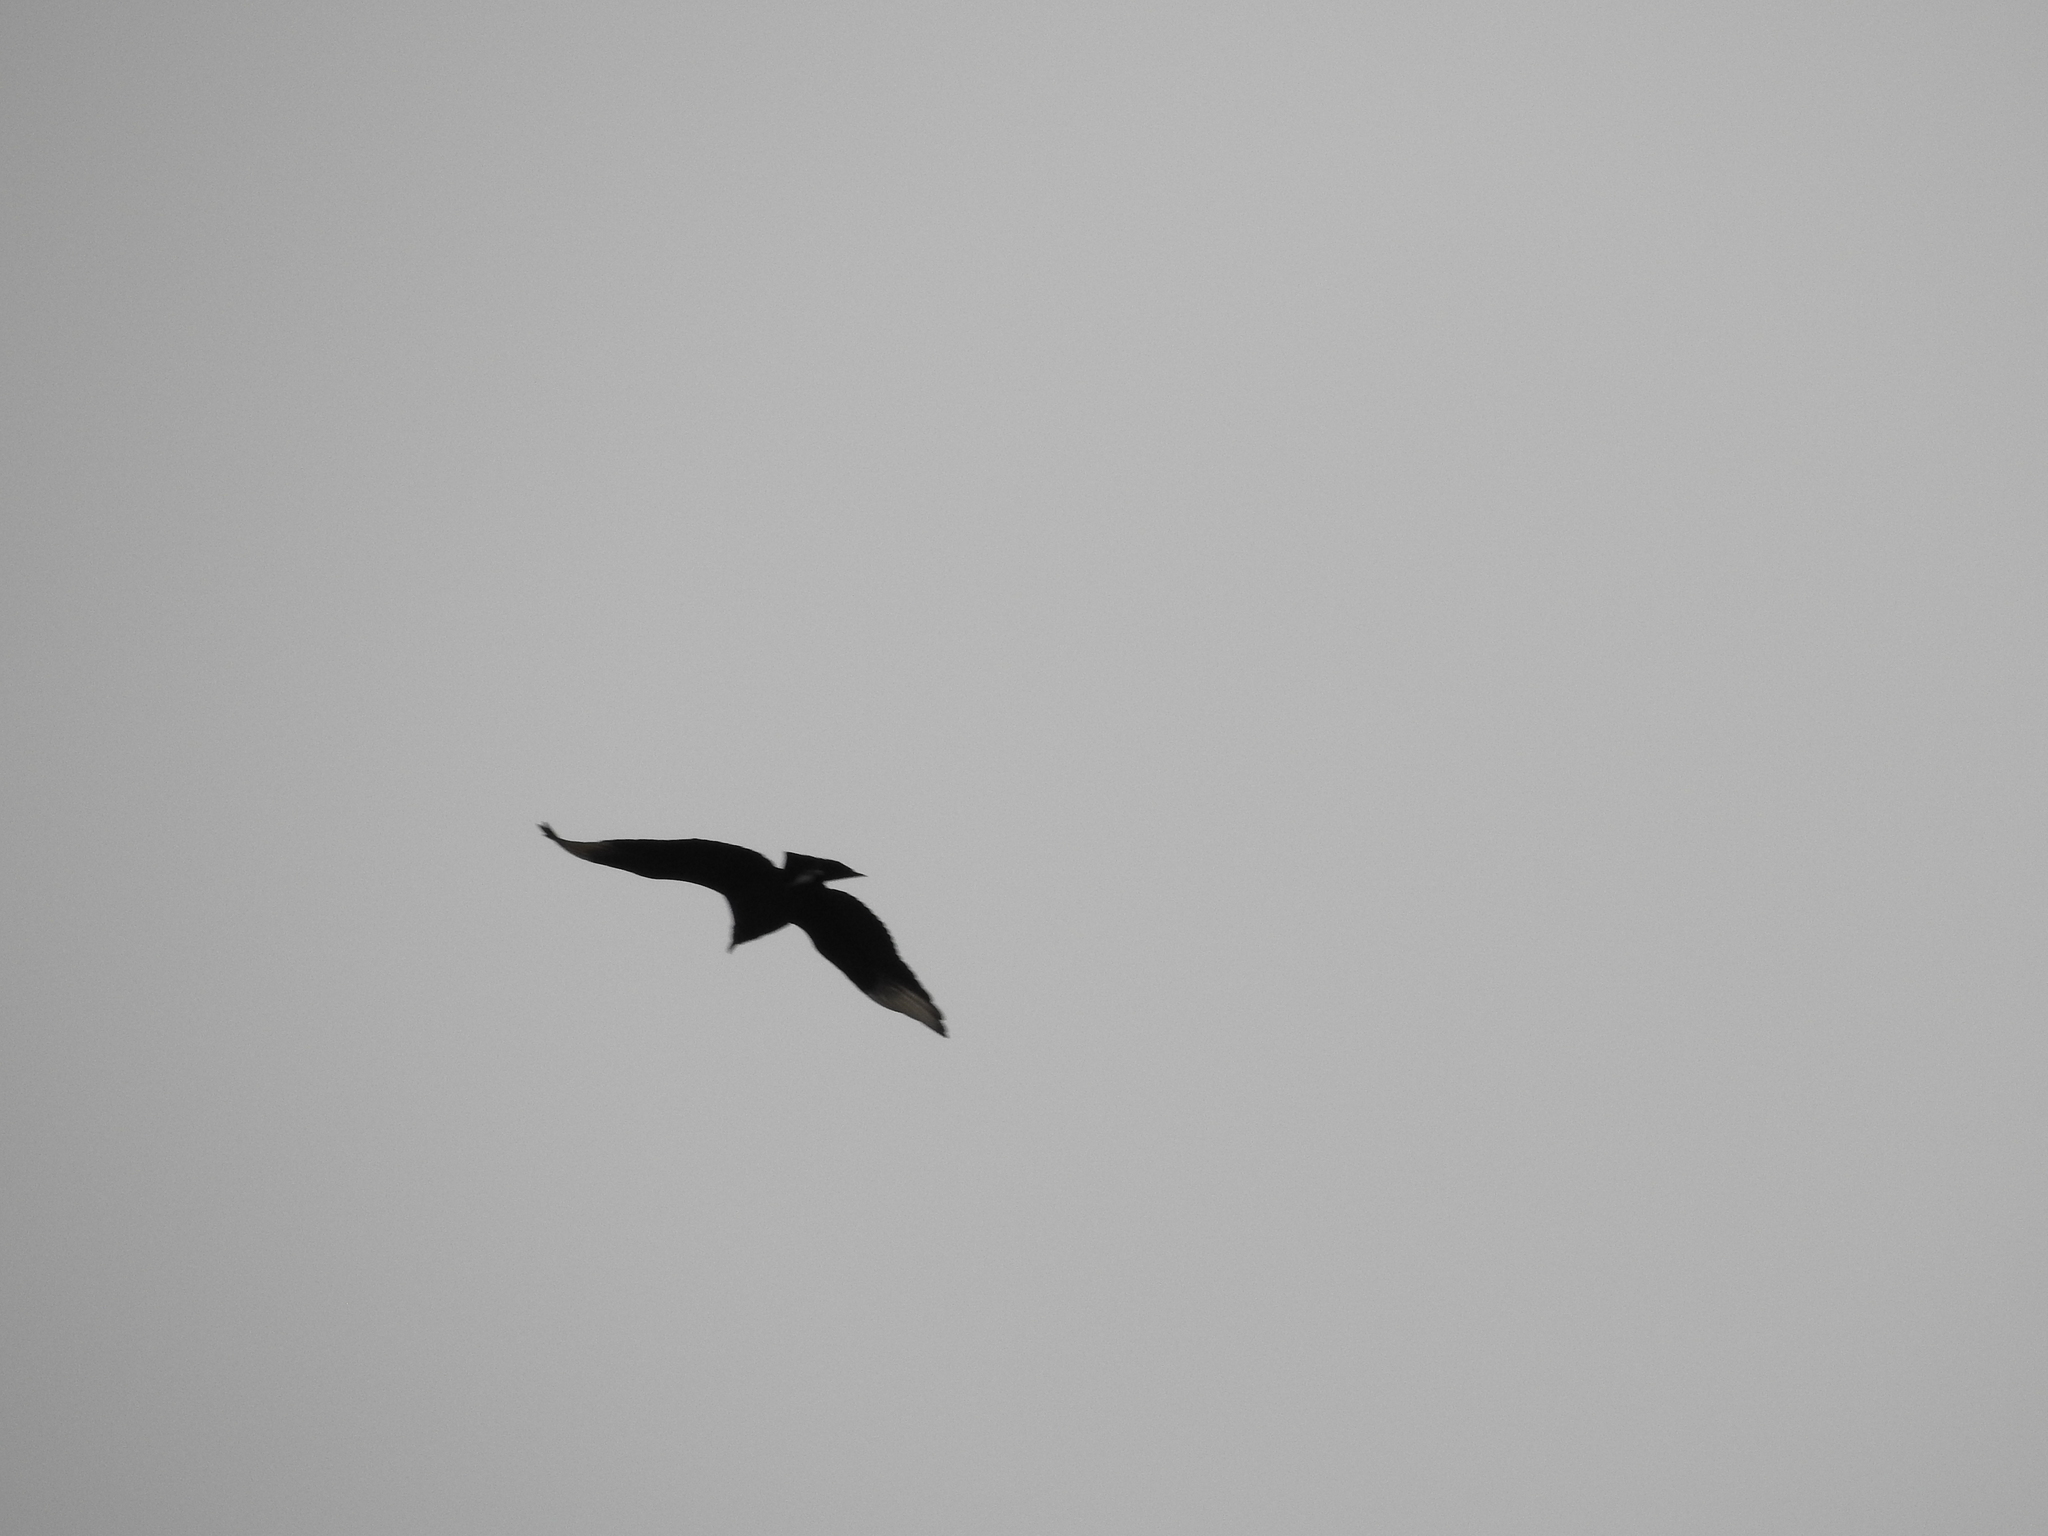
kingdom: Animalia
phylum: Chordata
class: Aves
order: Accipitriformes
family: Cathartidae
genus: Coragyps
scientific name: Coragyps atratus
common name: Black vulture
